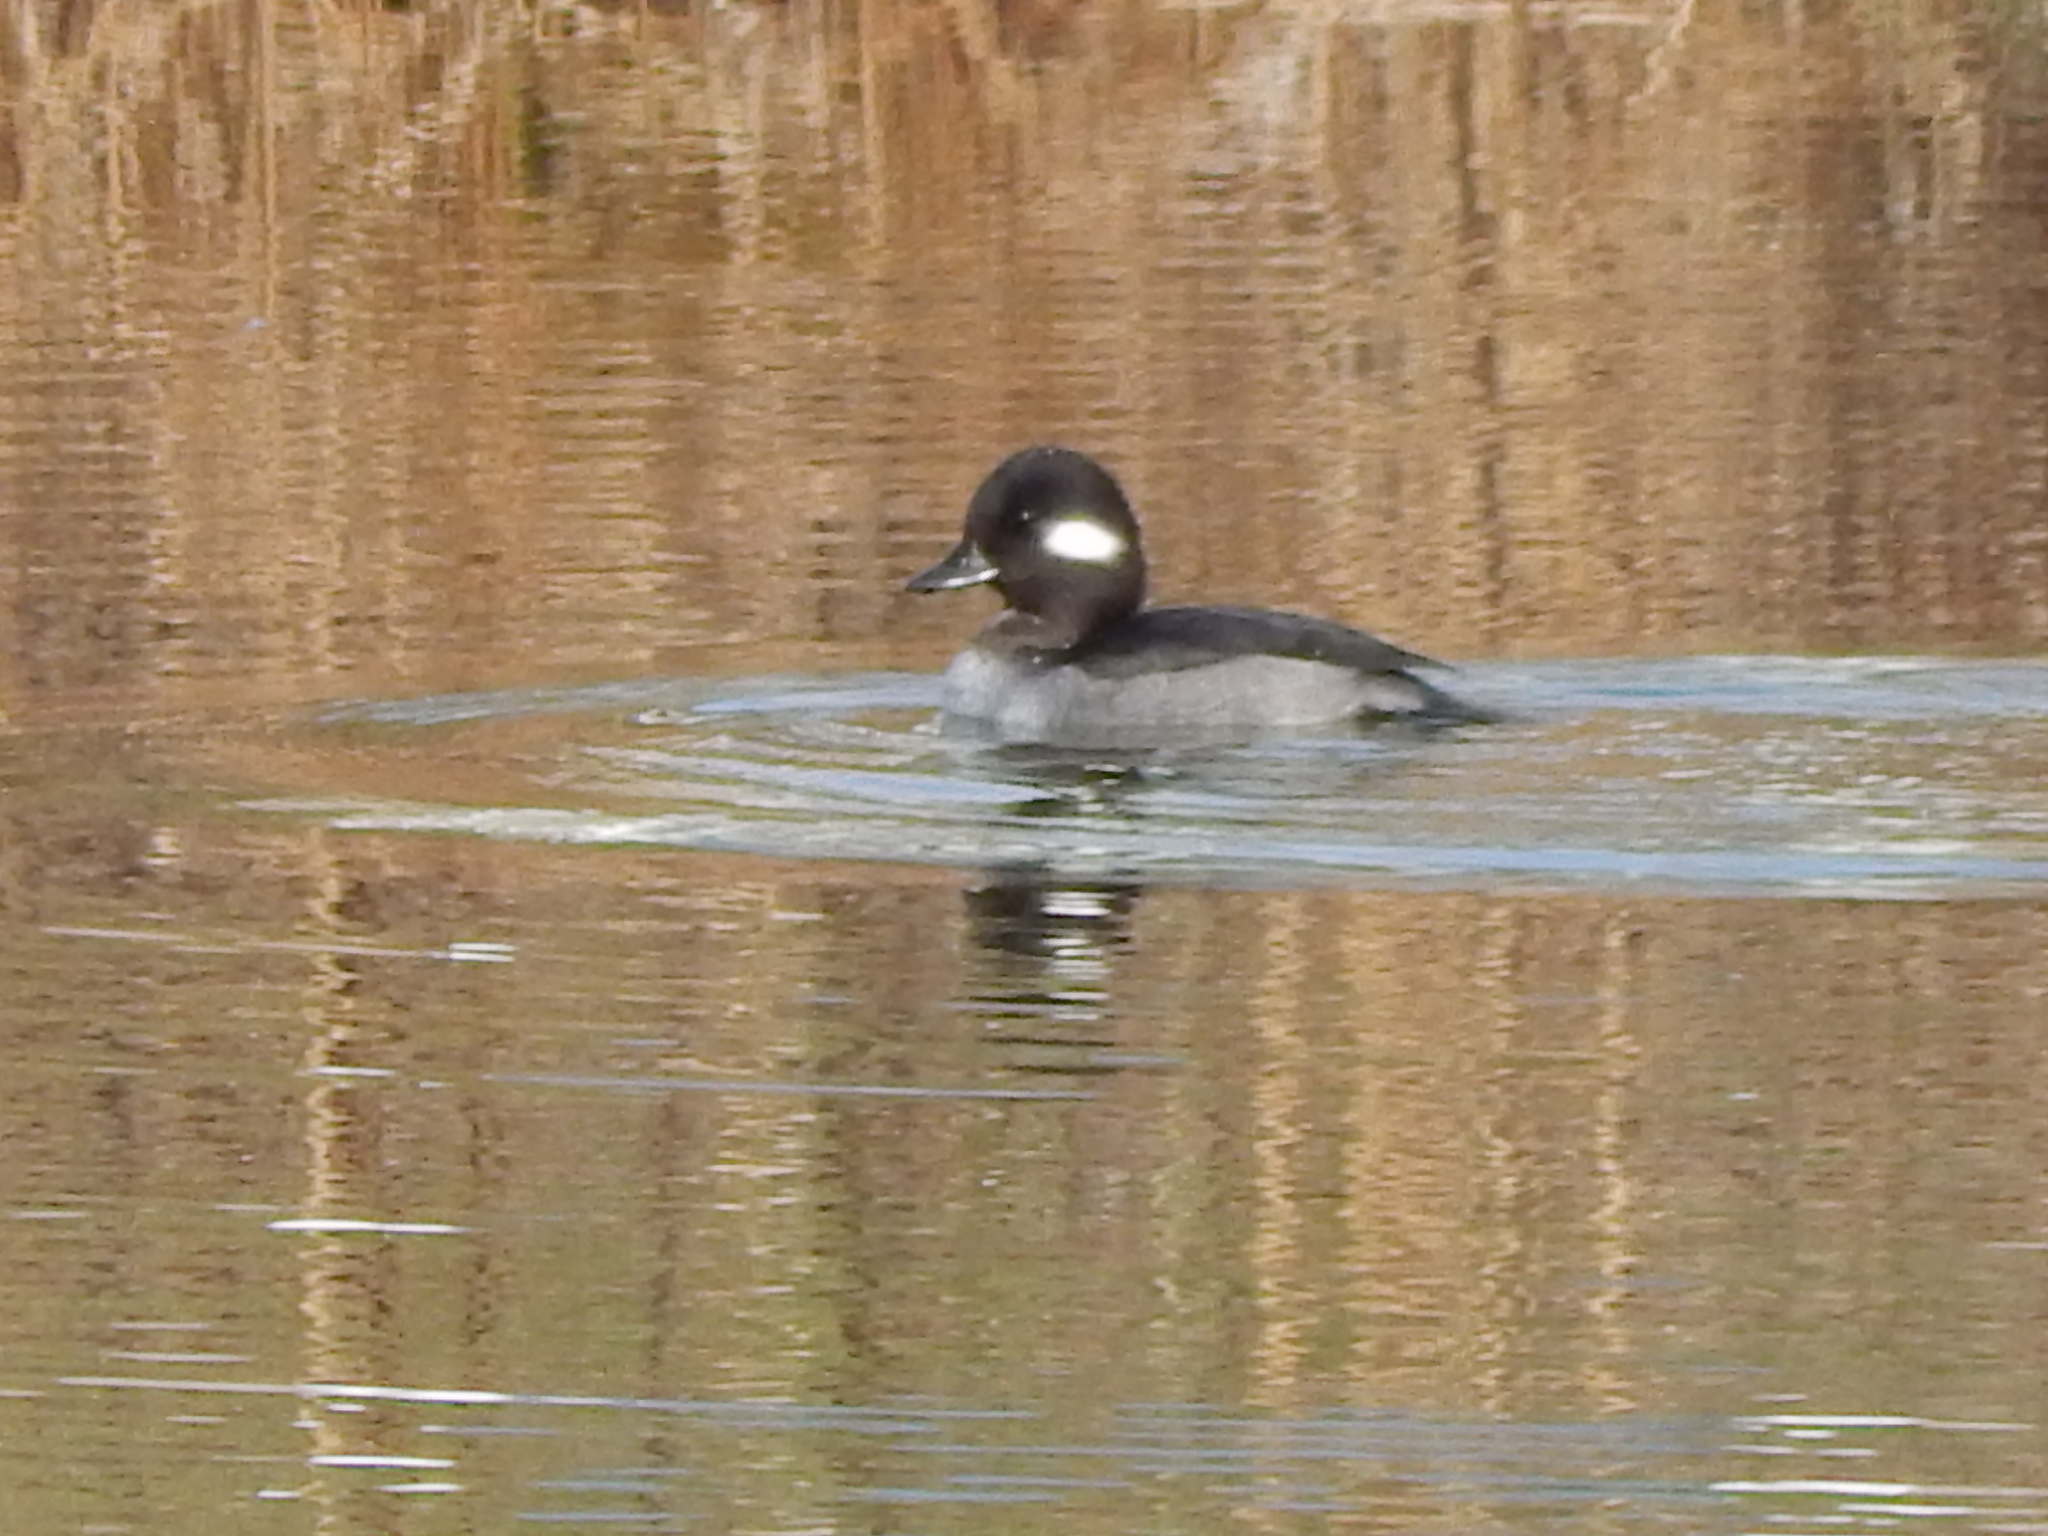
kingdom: Animalia
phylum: Chordata
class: Aves
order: Anseriformes
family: Anatidae
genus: Bucephala
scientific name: Bucephala albeola
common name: Bufflehead
